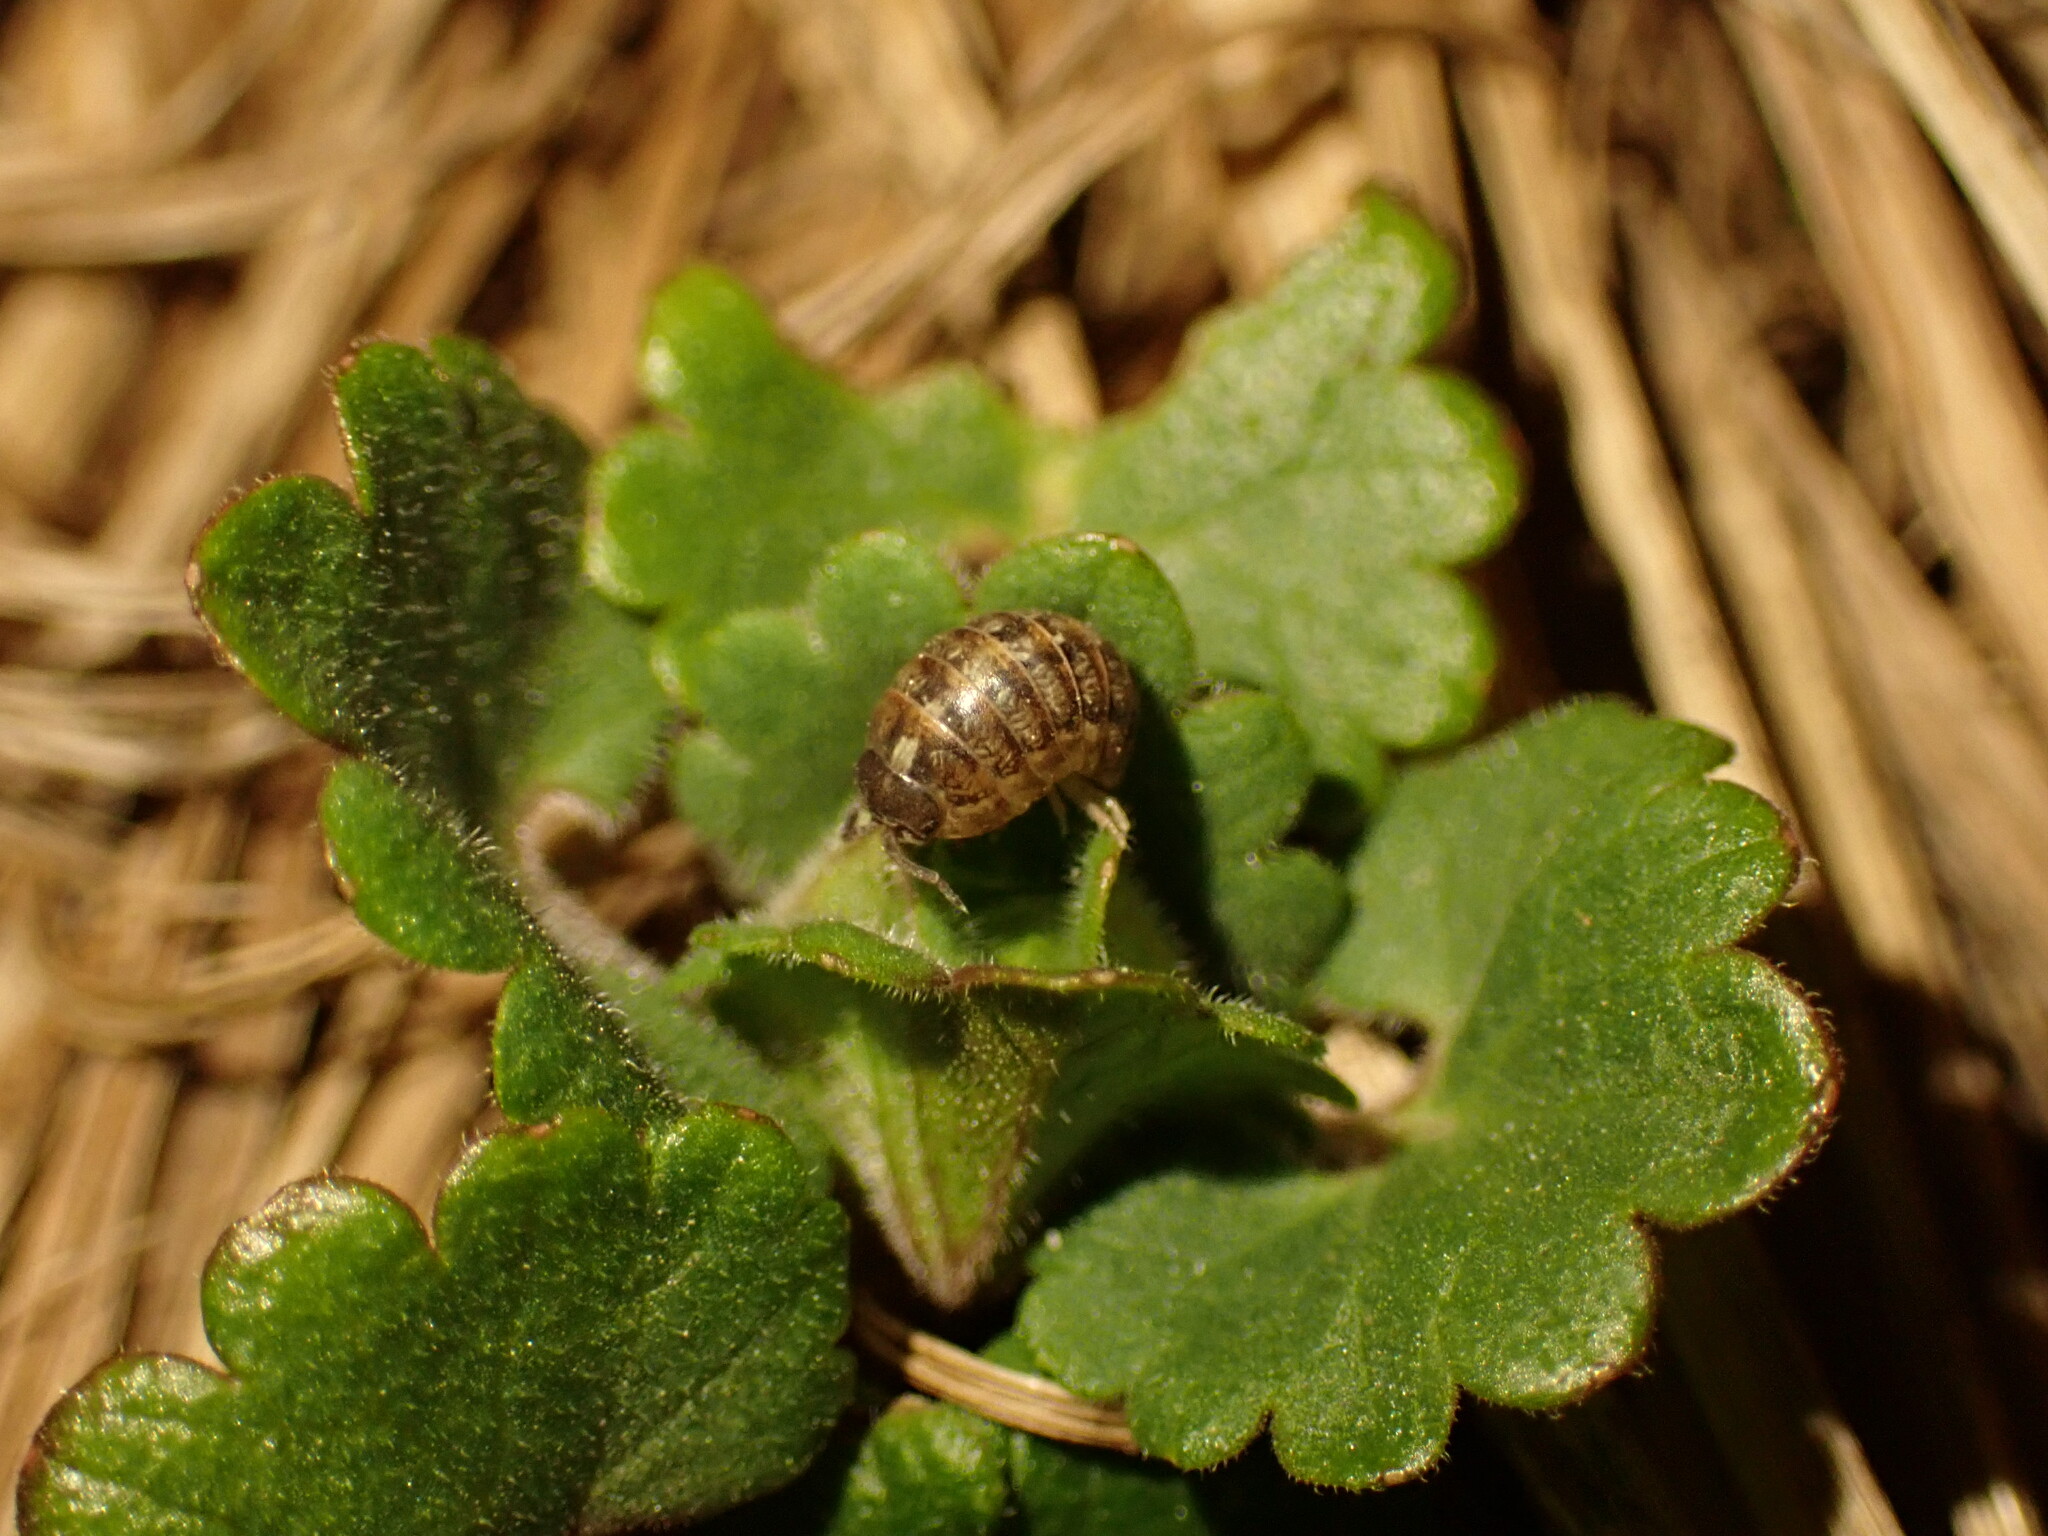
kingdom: Animalia
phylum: Arthropoda
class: Malacostraca
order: Isopoda
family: Armadillidiidae
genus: Armadillidium
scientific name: Armadillidium vulgare
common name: Common pill woodlouse
